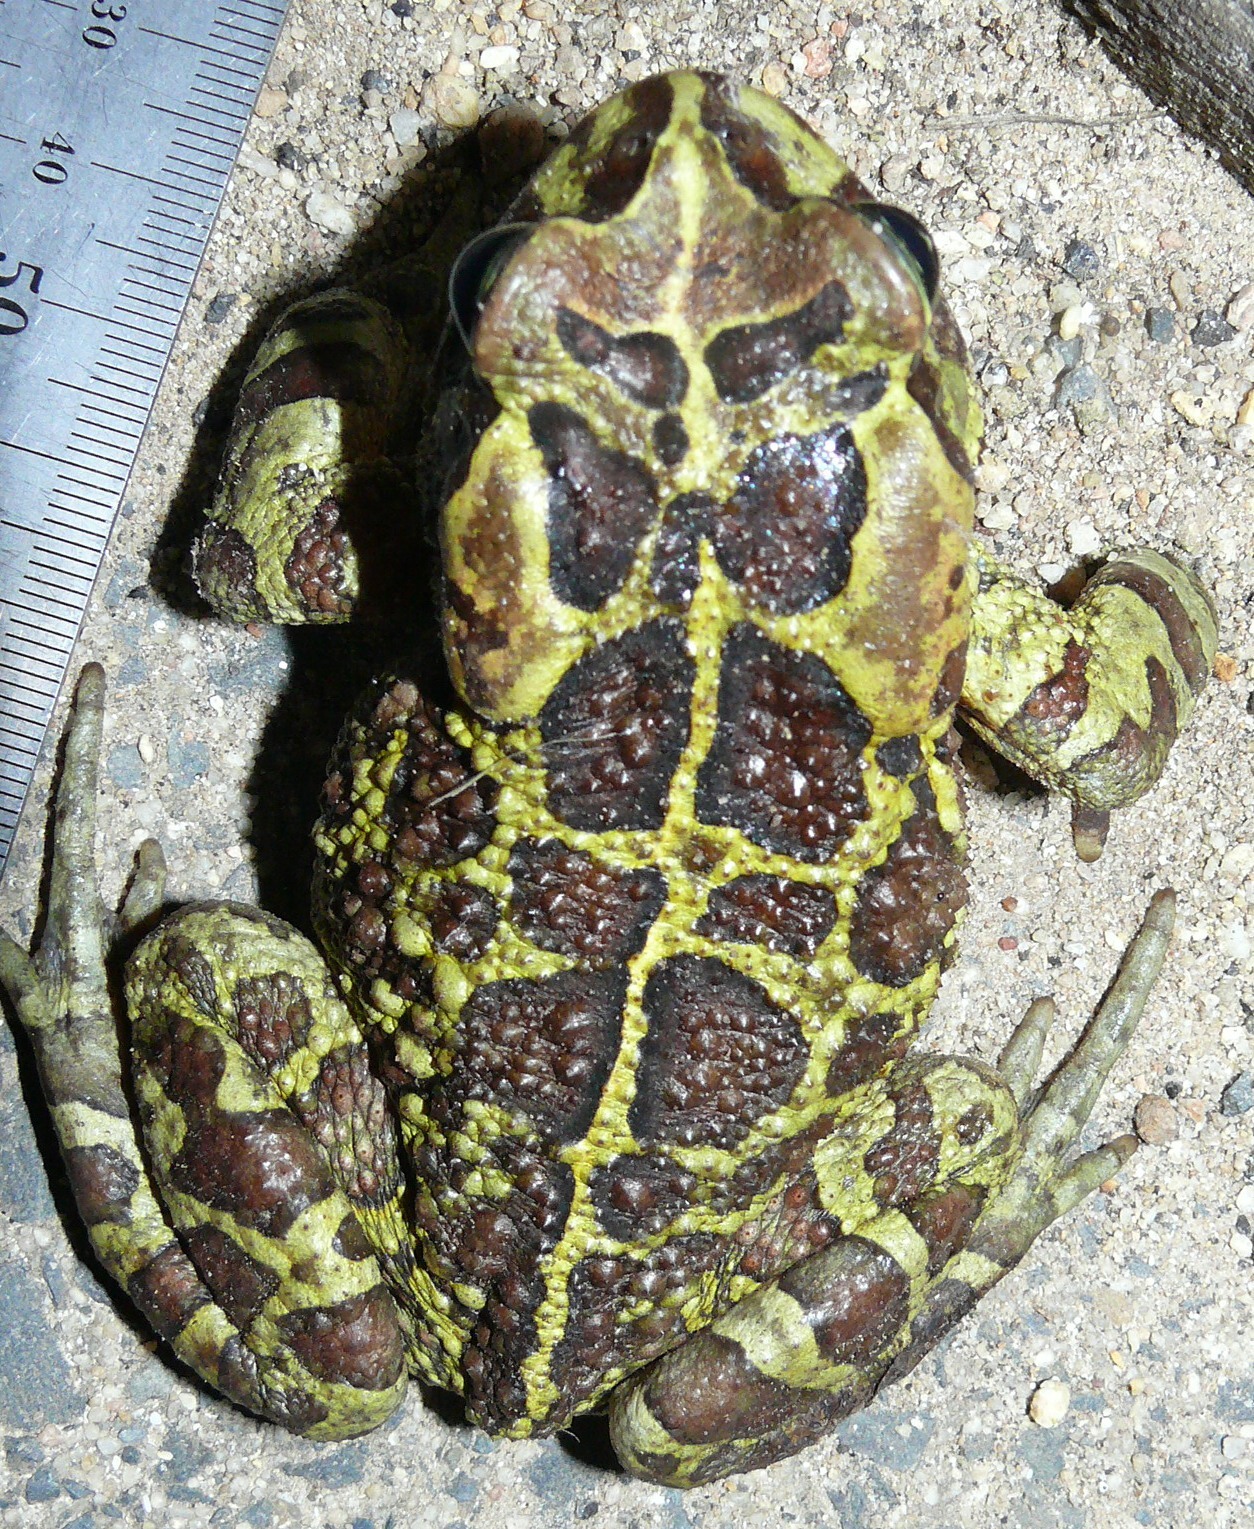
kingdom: Animalia
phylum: Chordata
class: Amphibia
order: Anura
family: Bufonidae
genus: Sclerophrys
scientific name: Sclerophrys pantherina
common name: Panther toad
